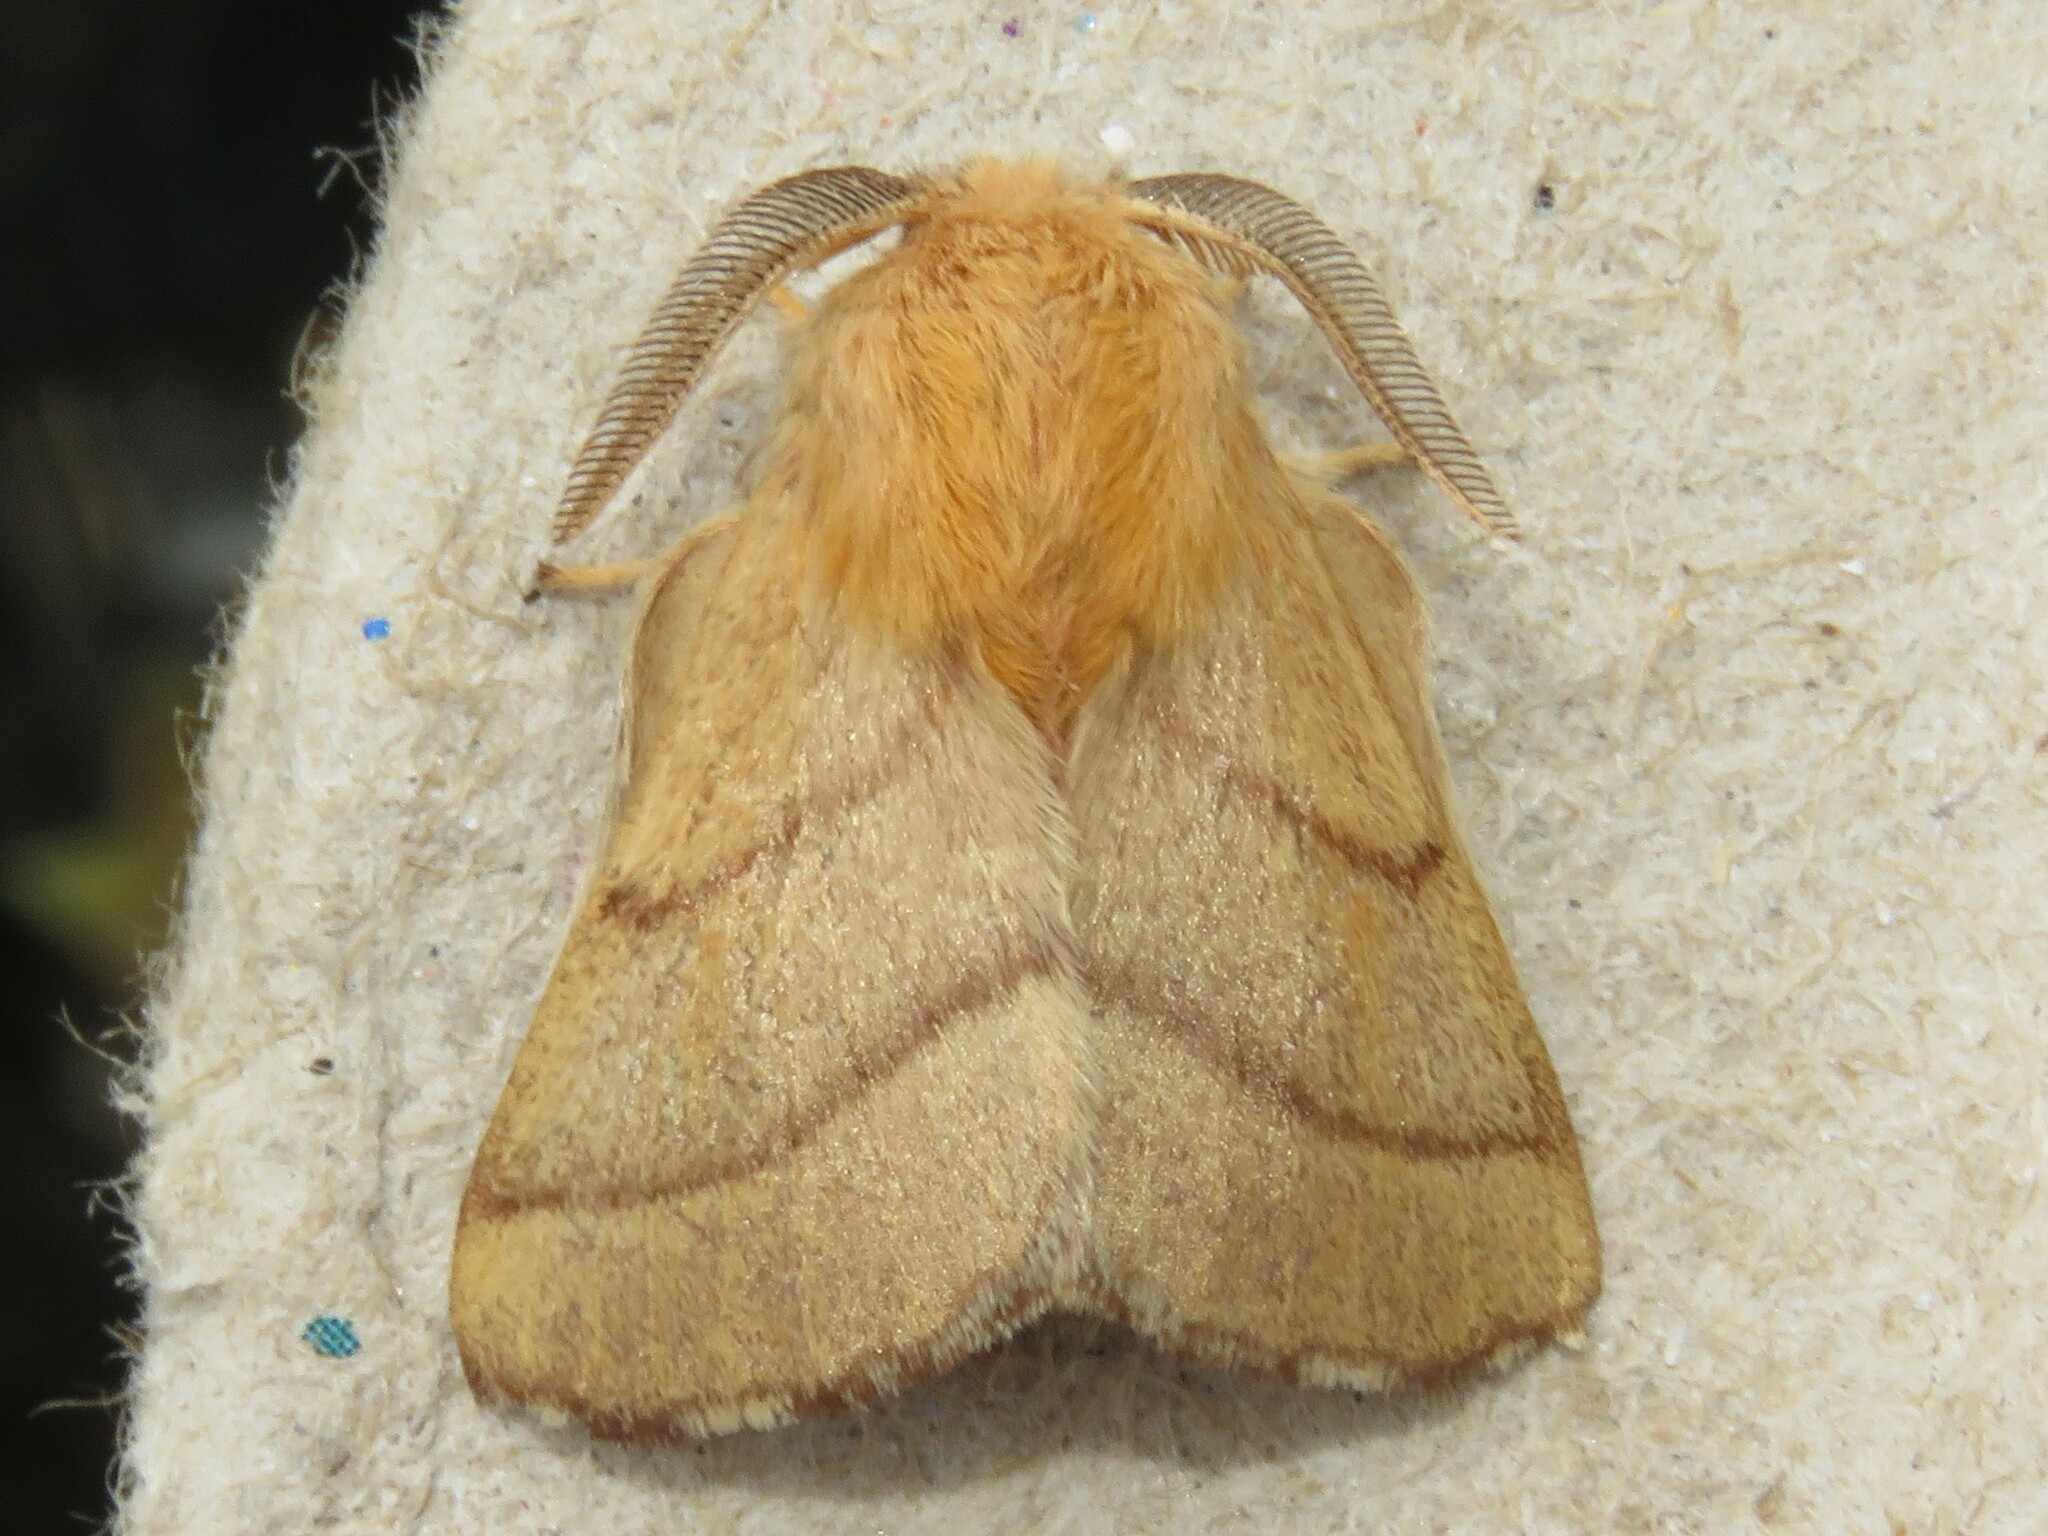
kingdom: Animalia
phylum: Arthropoda
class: Insecta
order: Lepidoptera
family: Lasiocampidae
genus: Malacosoma
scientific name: Malacosoma disstria
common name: Forest tent caterpillar
